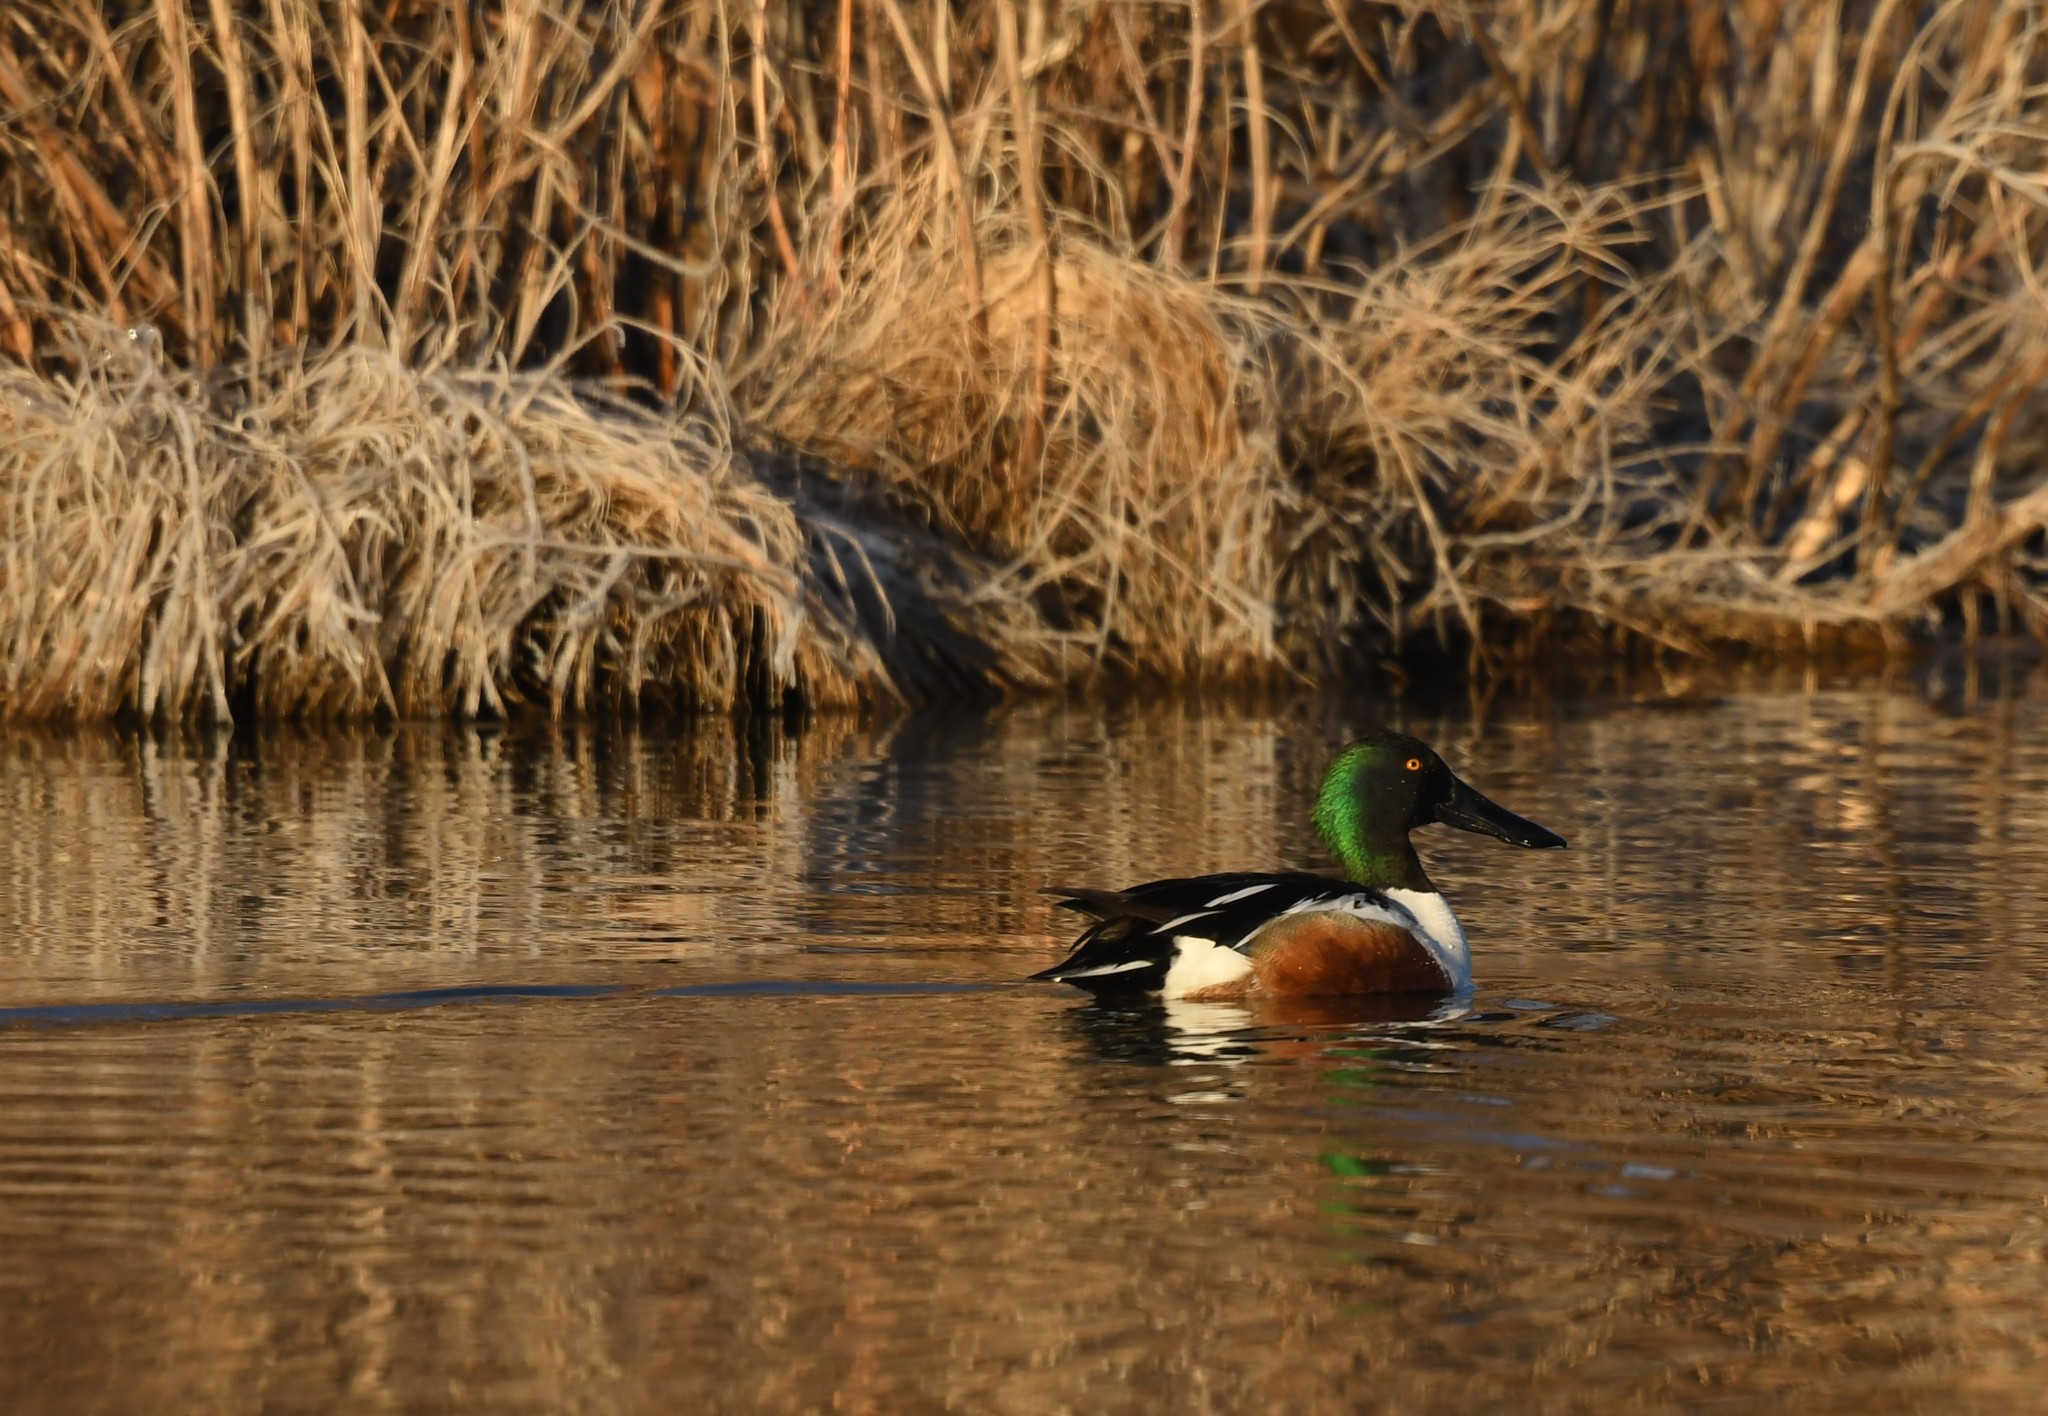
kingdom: Animalia
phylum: Chordata
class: Aves
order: Anseriformes
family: Anatidae
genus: Spatula
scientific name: Spatula clypeata
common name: Northern shoveler
